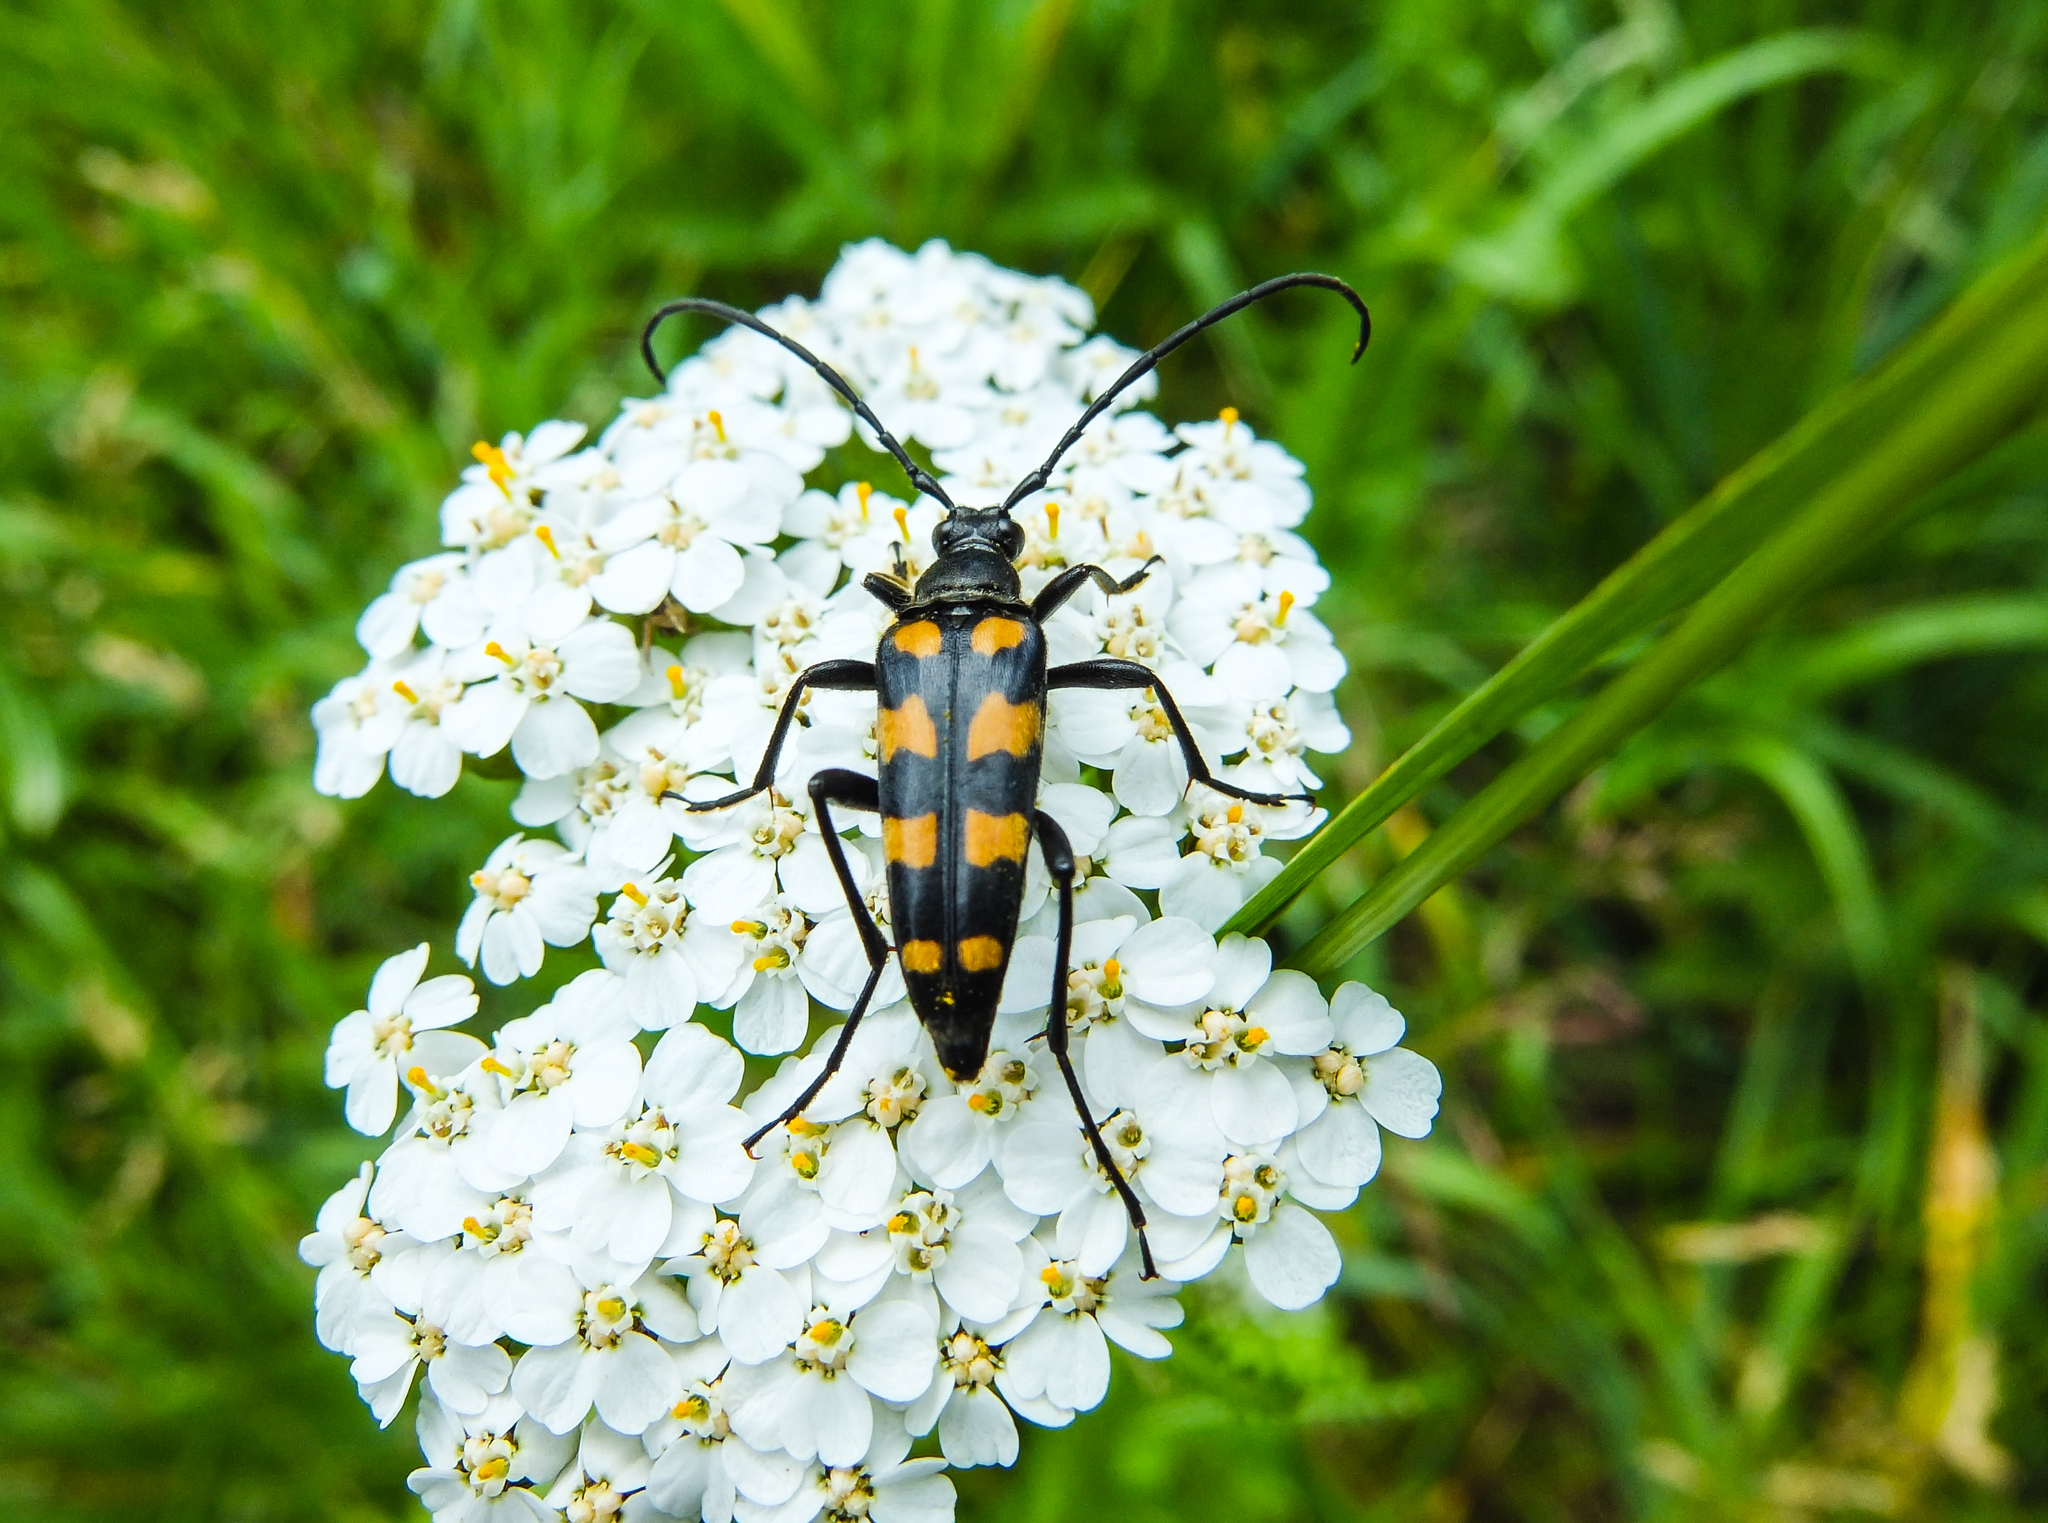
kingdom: Animalia
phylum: Arthropoda
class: Insecta
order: Coleoptera
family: Cerambycidae
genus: Leptura
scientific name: Leptura quadrifasciata
